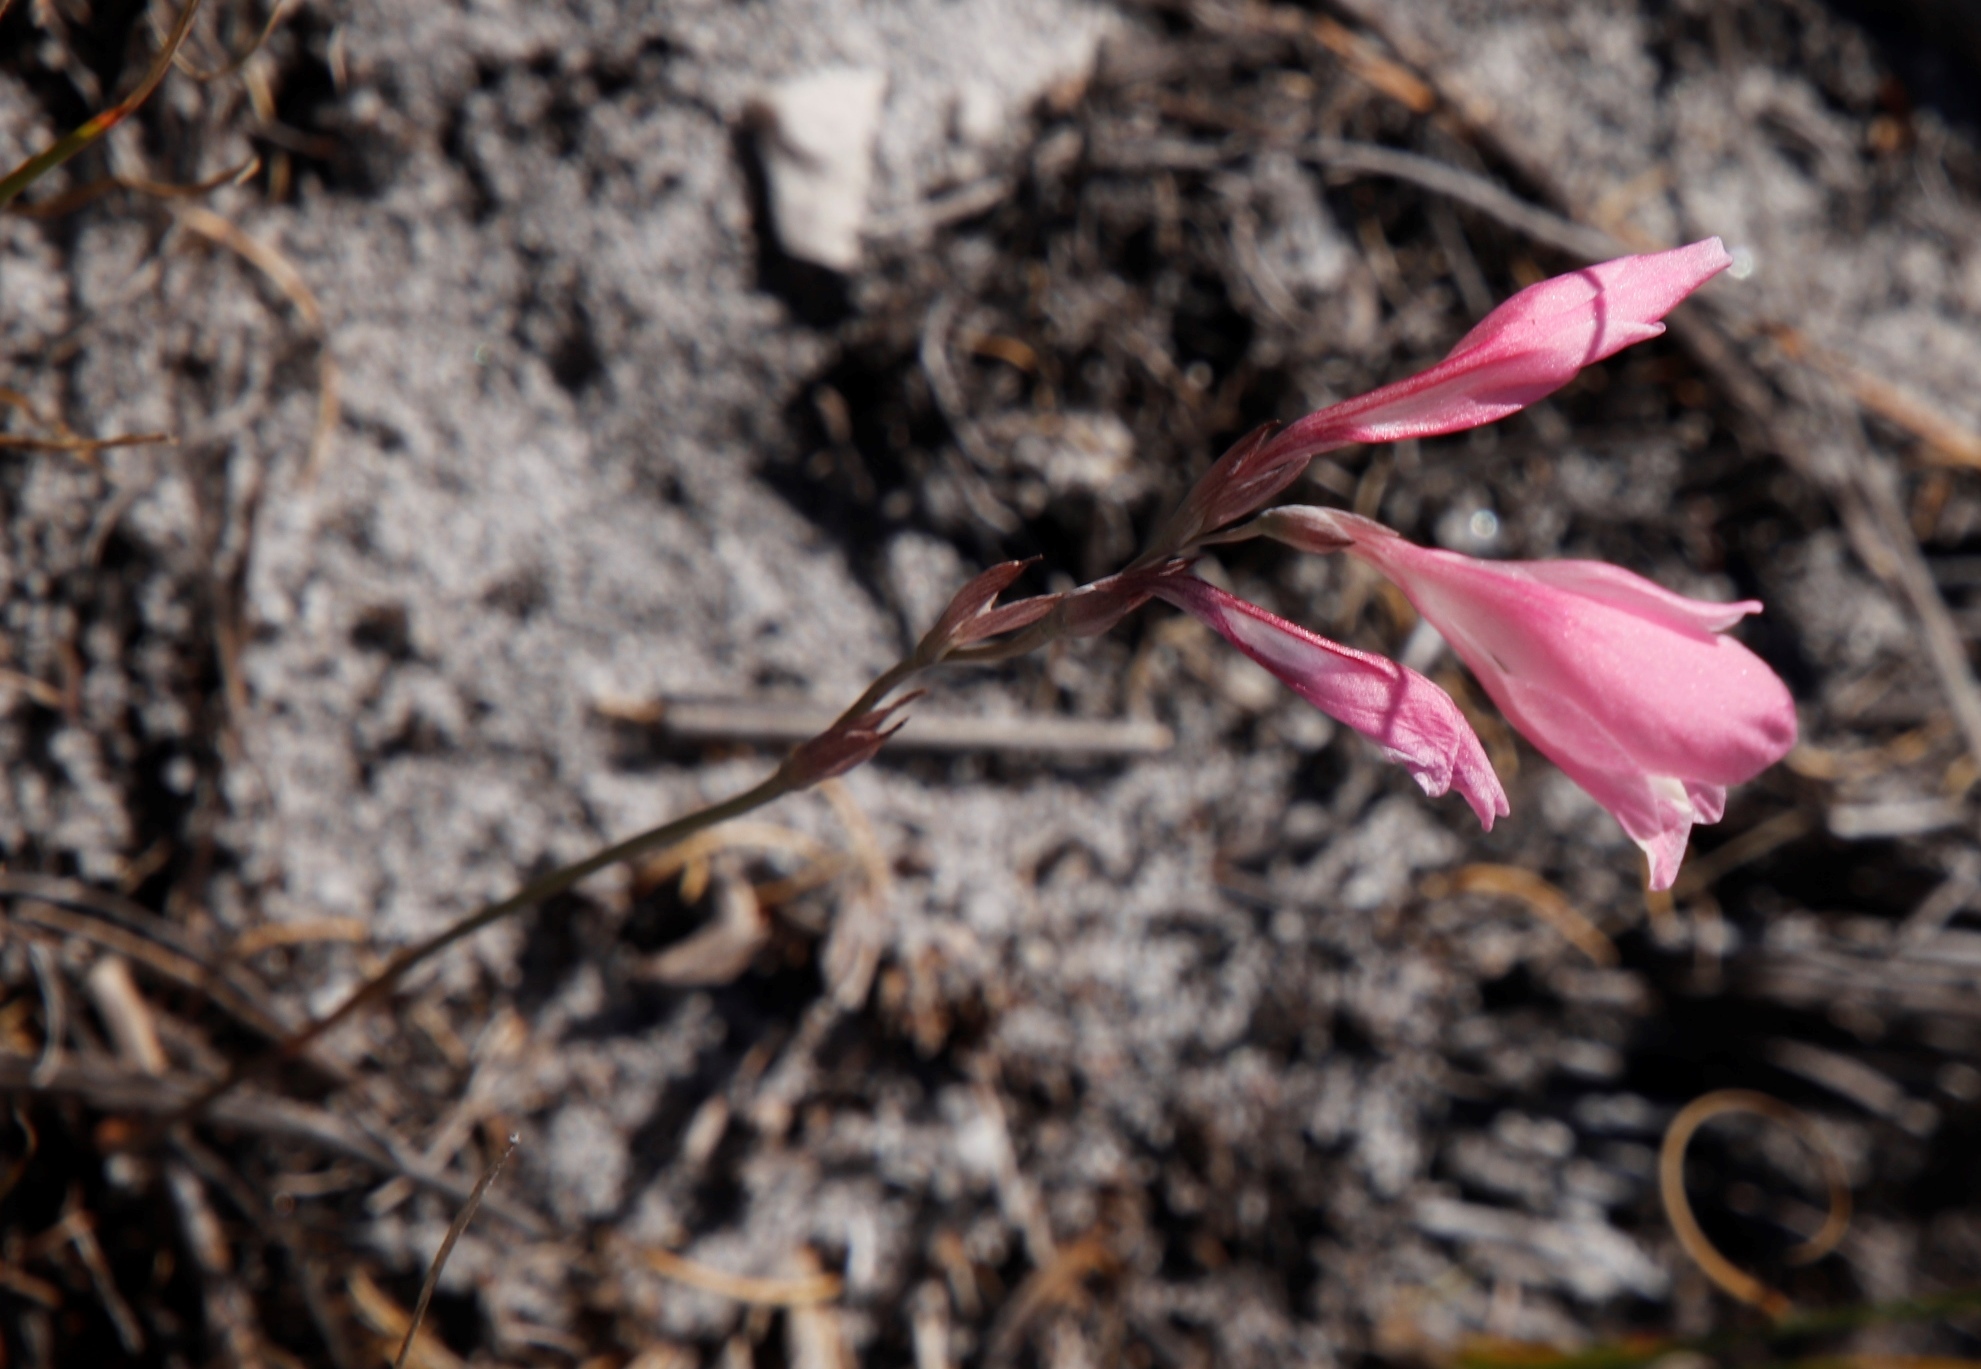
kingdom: Plantae
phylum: Tracheophyta
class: Liliopsida
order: Asparagales
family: Iridaceae
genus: Gladiolus
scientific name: Gladiolus brevifolius
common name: March pypie
